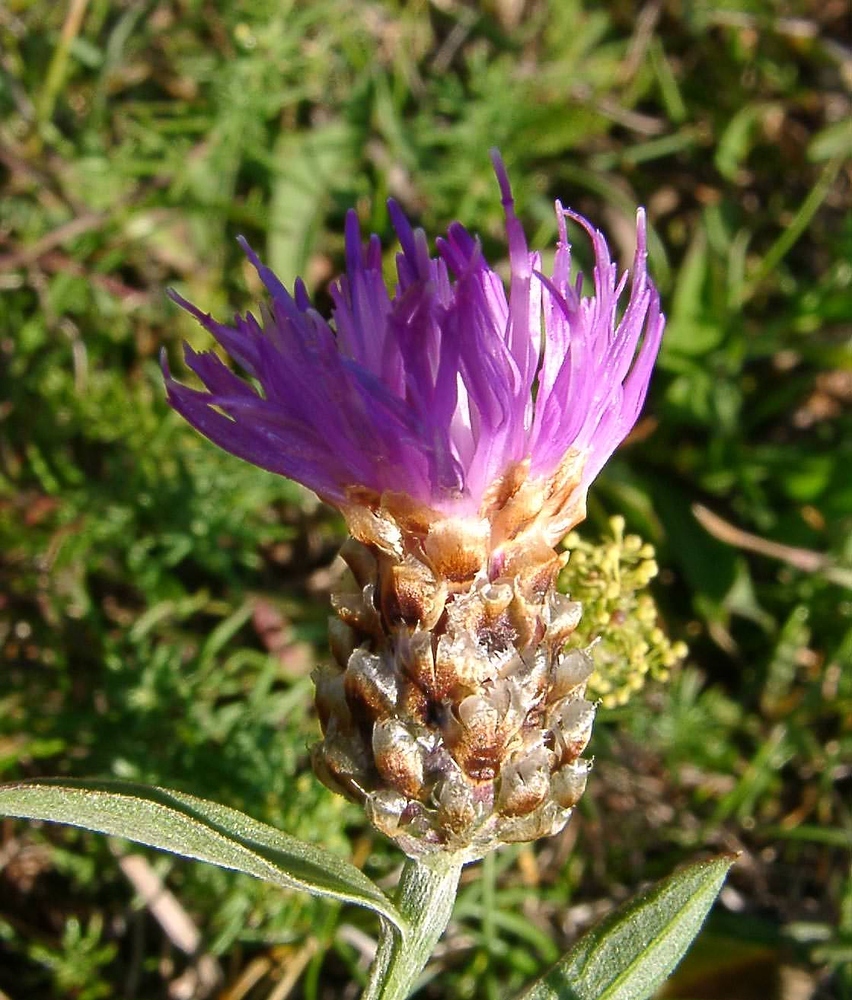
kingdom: Plantae
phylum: Tracheophyta
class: Magnoliopsida
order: Asterales
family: Asteraceae
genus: Centaurea
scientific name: Centaurea jacea
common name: Brown knapweed
